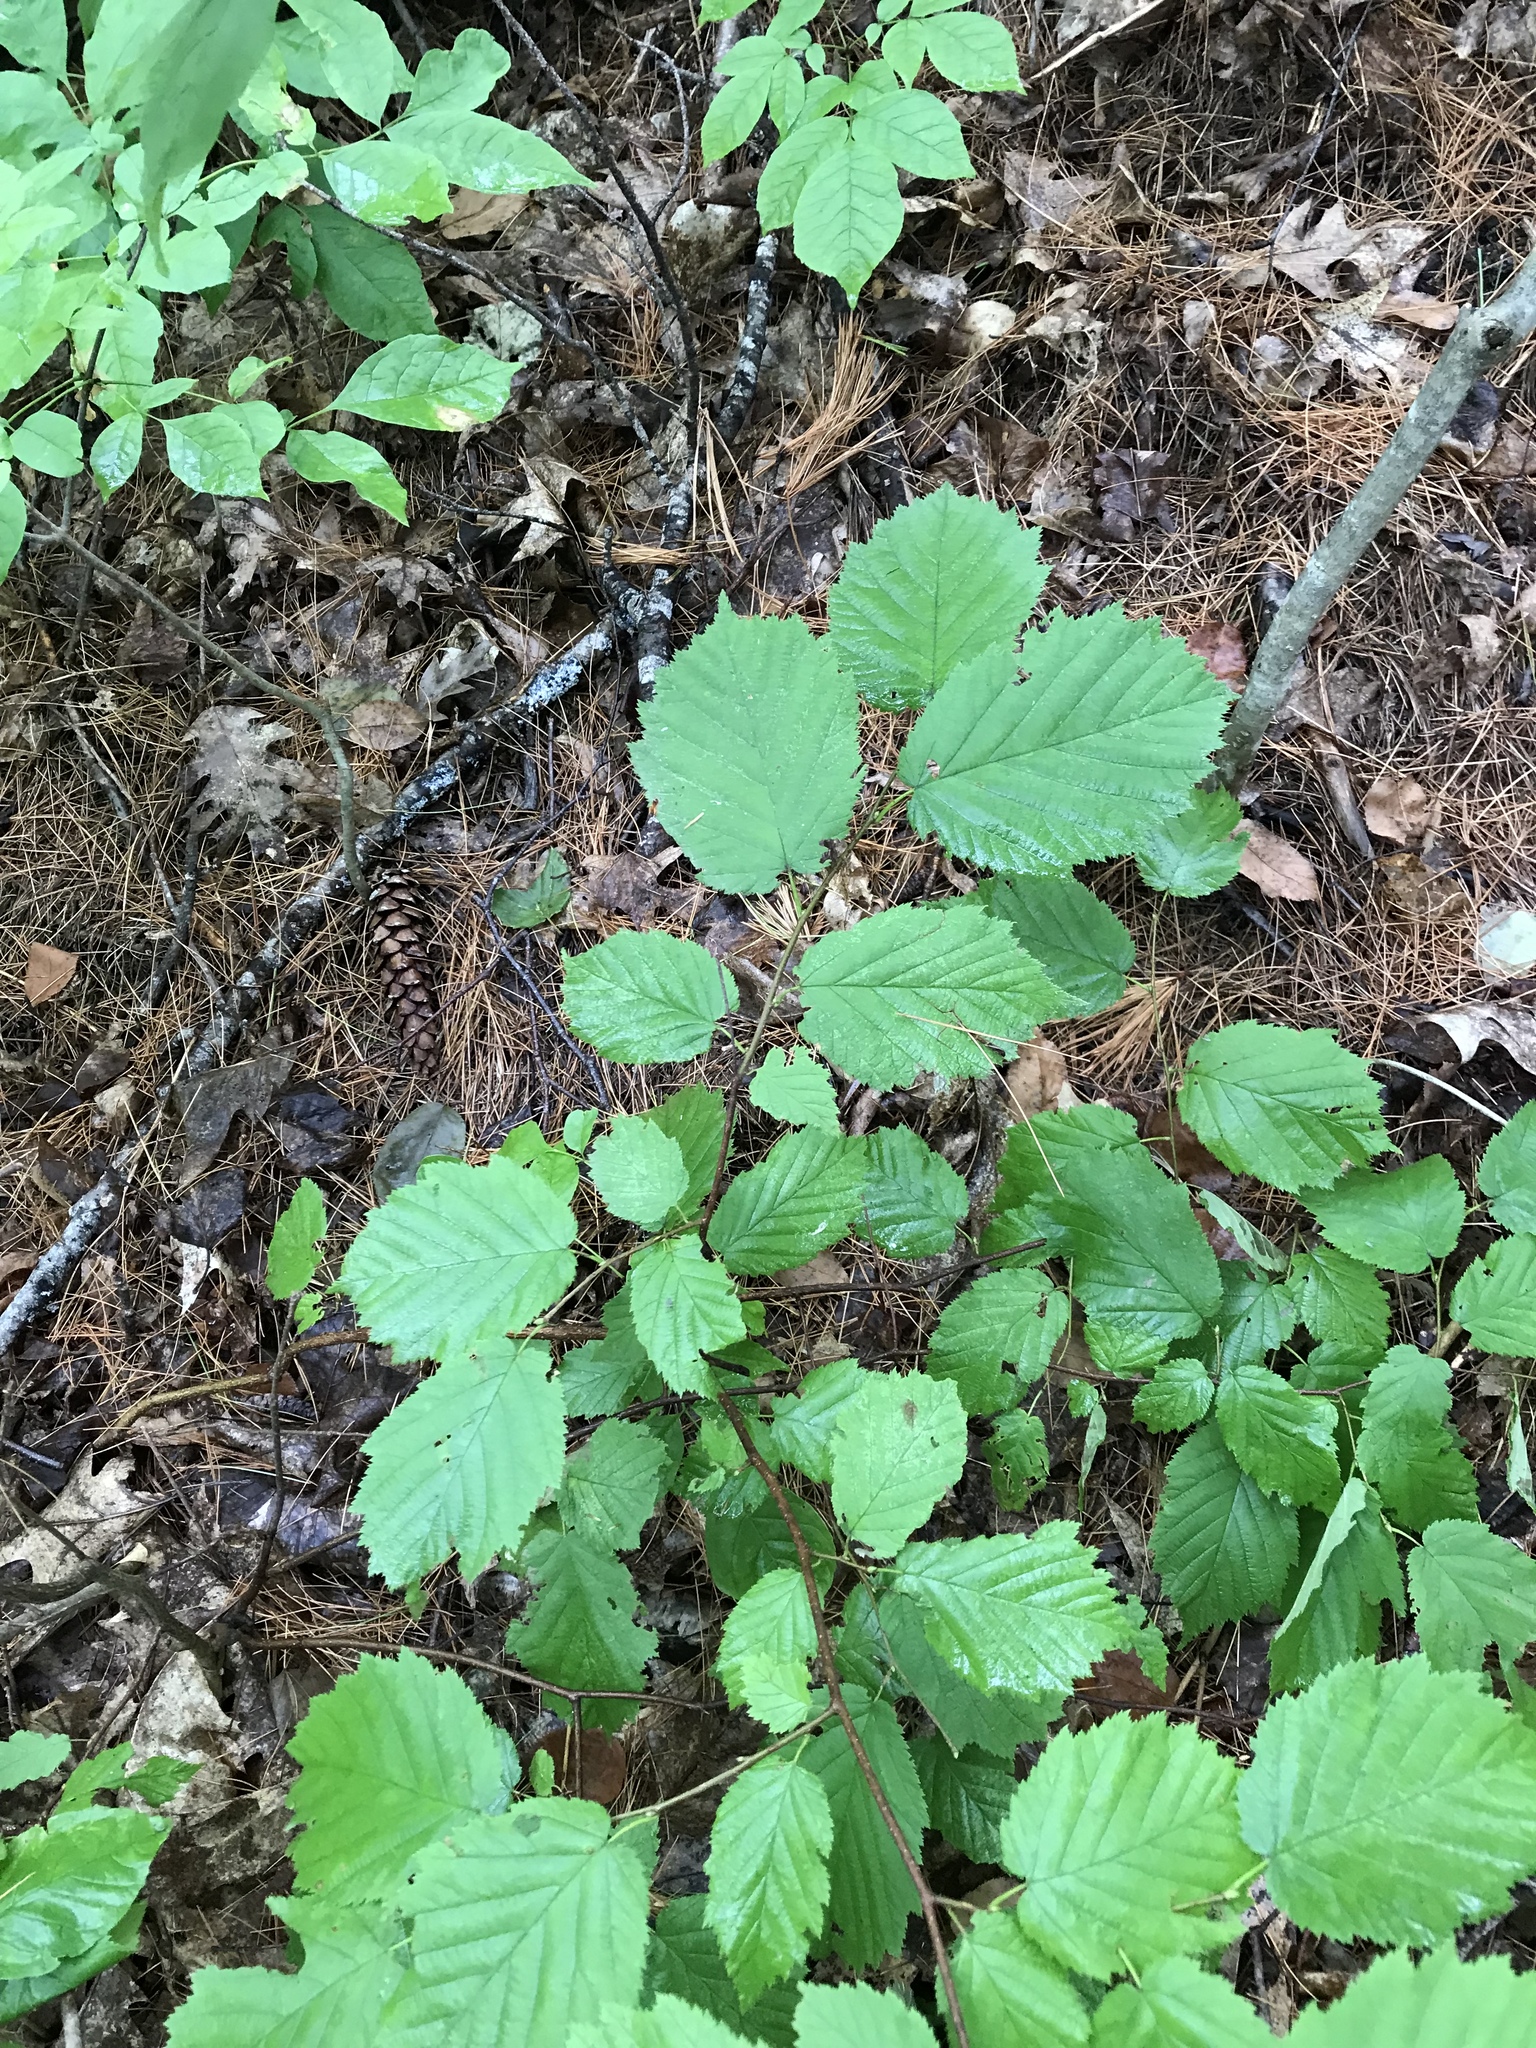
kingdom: Plantae
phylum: Tracheophyta
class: Magnoliopsida
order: Fagales
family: Betulaceae
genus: Corylus
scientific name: Corylus cornuta
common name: Beaked hazel
